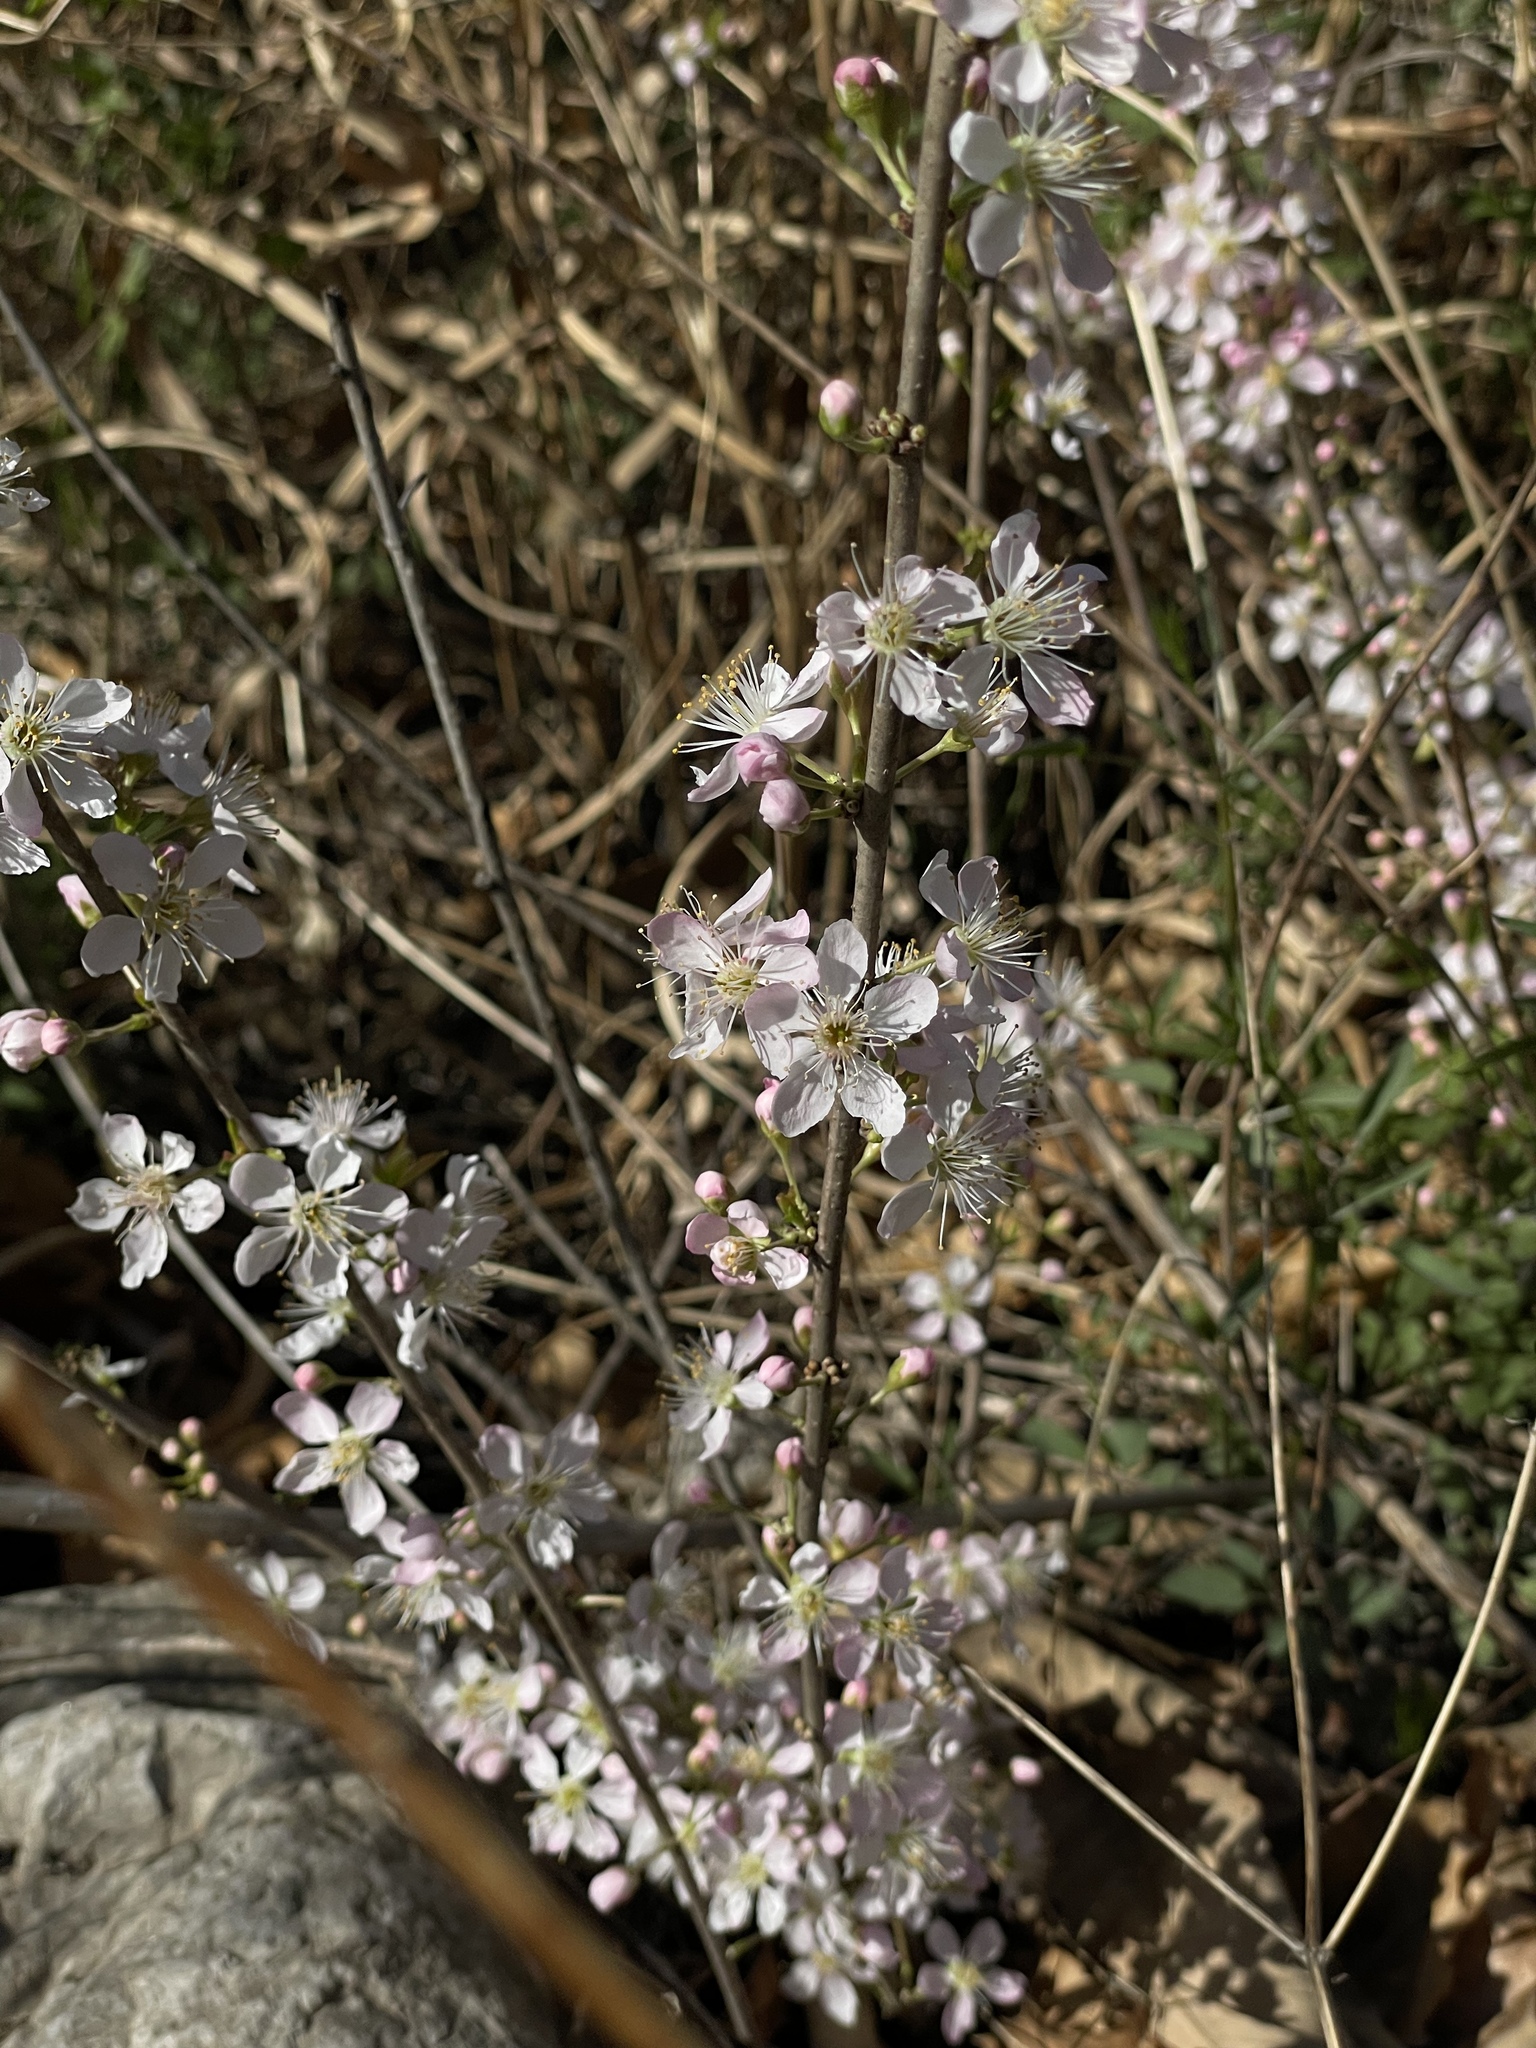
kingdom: Plantae
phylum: Tracheophyta
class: Magnoliopsida
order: Rosales
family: Rosaceae
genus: Prunus
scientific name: Prunus humilis
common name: Humble bush cherry
